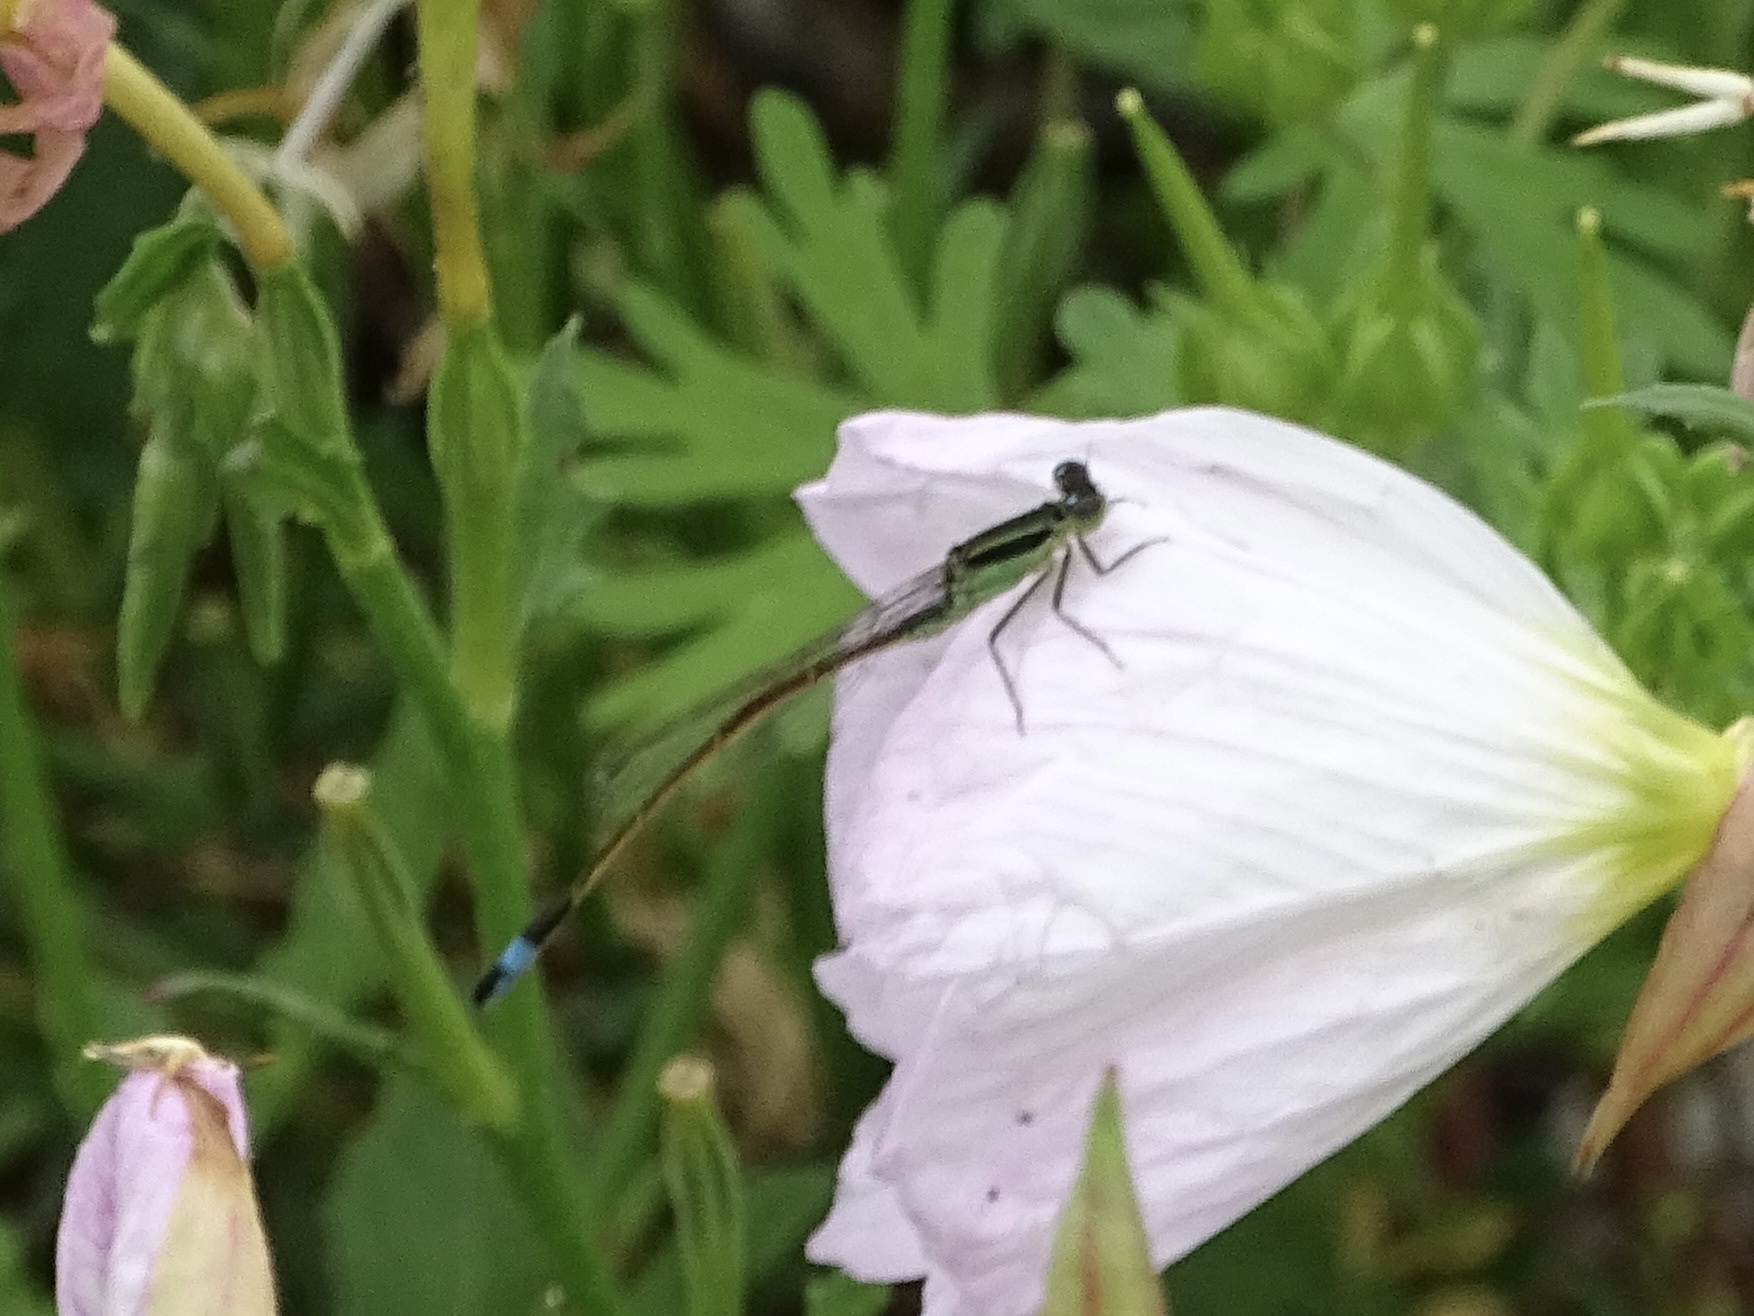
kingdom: Animalia
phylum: Arthropoda
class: Insecta
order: Odonata
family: Coenagrionidae
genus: Ischnura
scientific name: Ischnura ramburii
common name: Rambur's forktail
